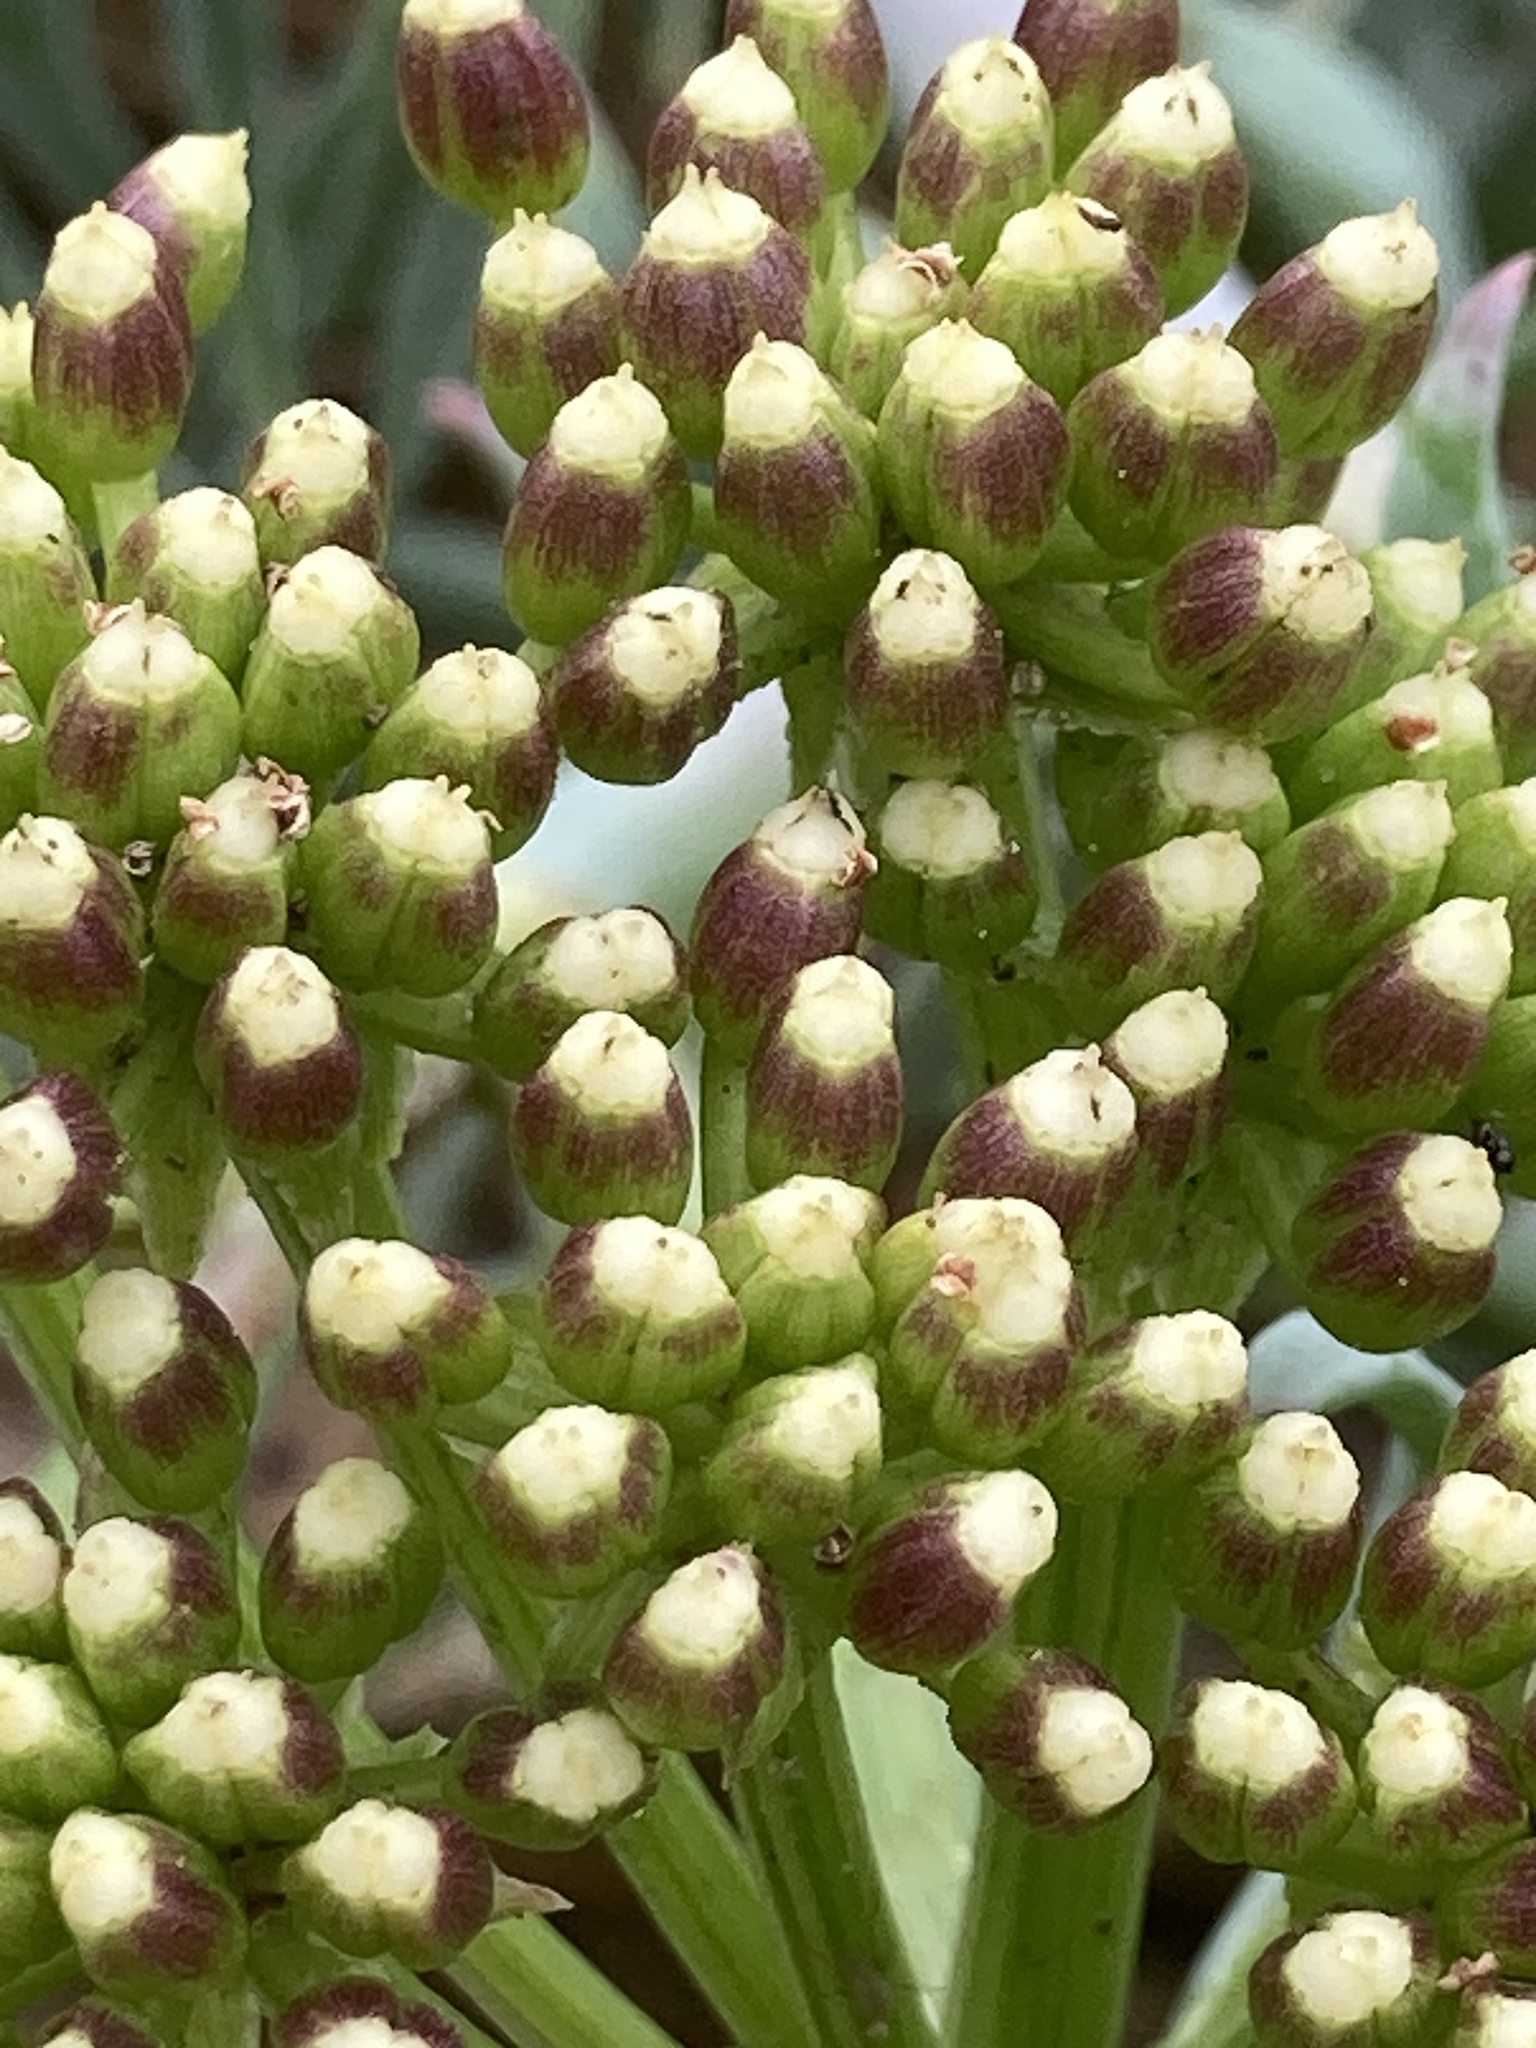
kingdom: Plantae
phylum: Tracheophyta
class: Magnoliopsida
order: Apiales
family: Apiaceae
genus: Crithmum
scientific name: Crithmum maritimum
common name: Rock samphire
